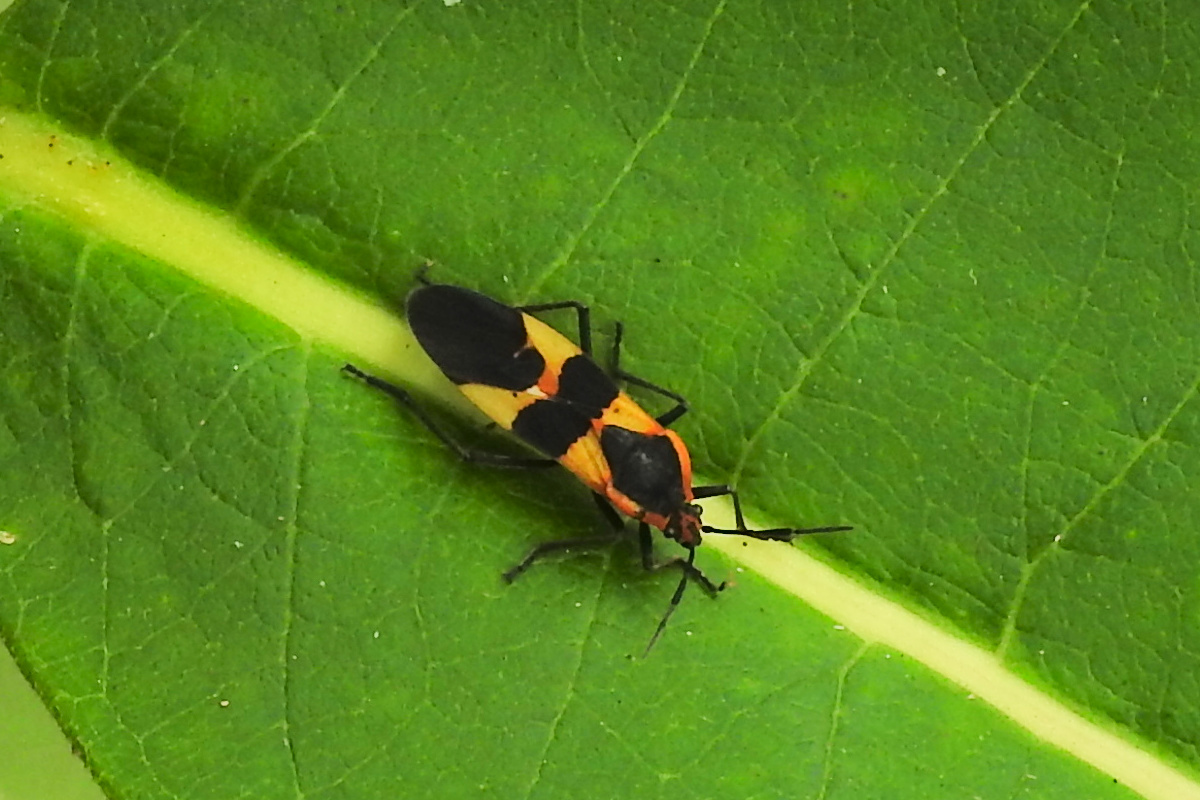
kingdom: Animalia
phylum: Arthropoda
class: Insecta
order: Hemiptera
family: Lygaeidae
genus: Oncopeltus
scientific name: Oncopeltus fasciatus
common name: Large milkweed bug
